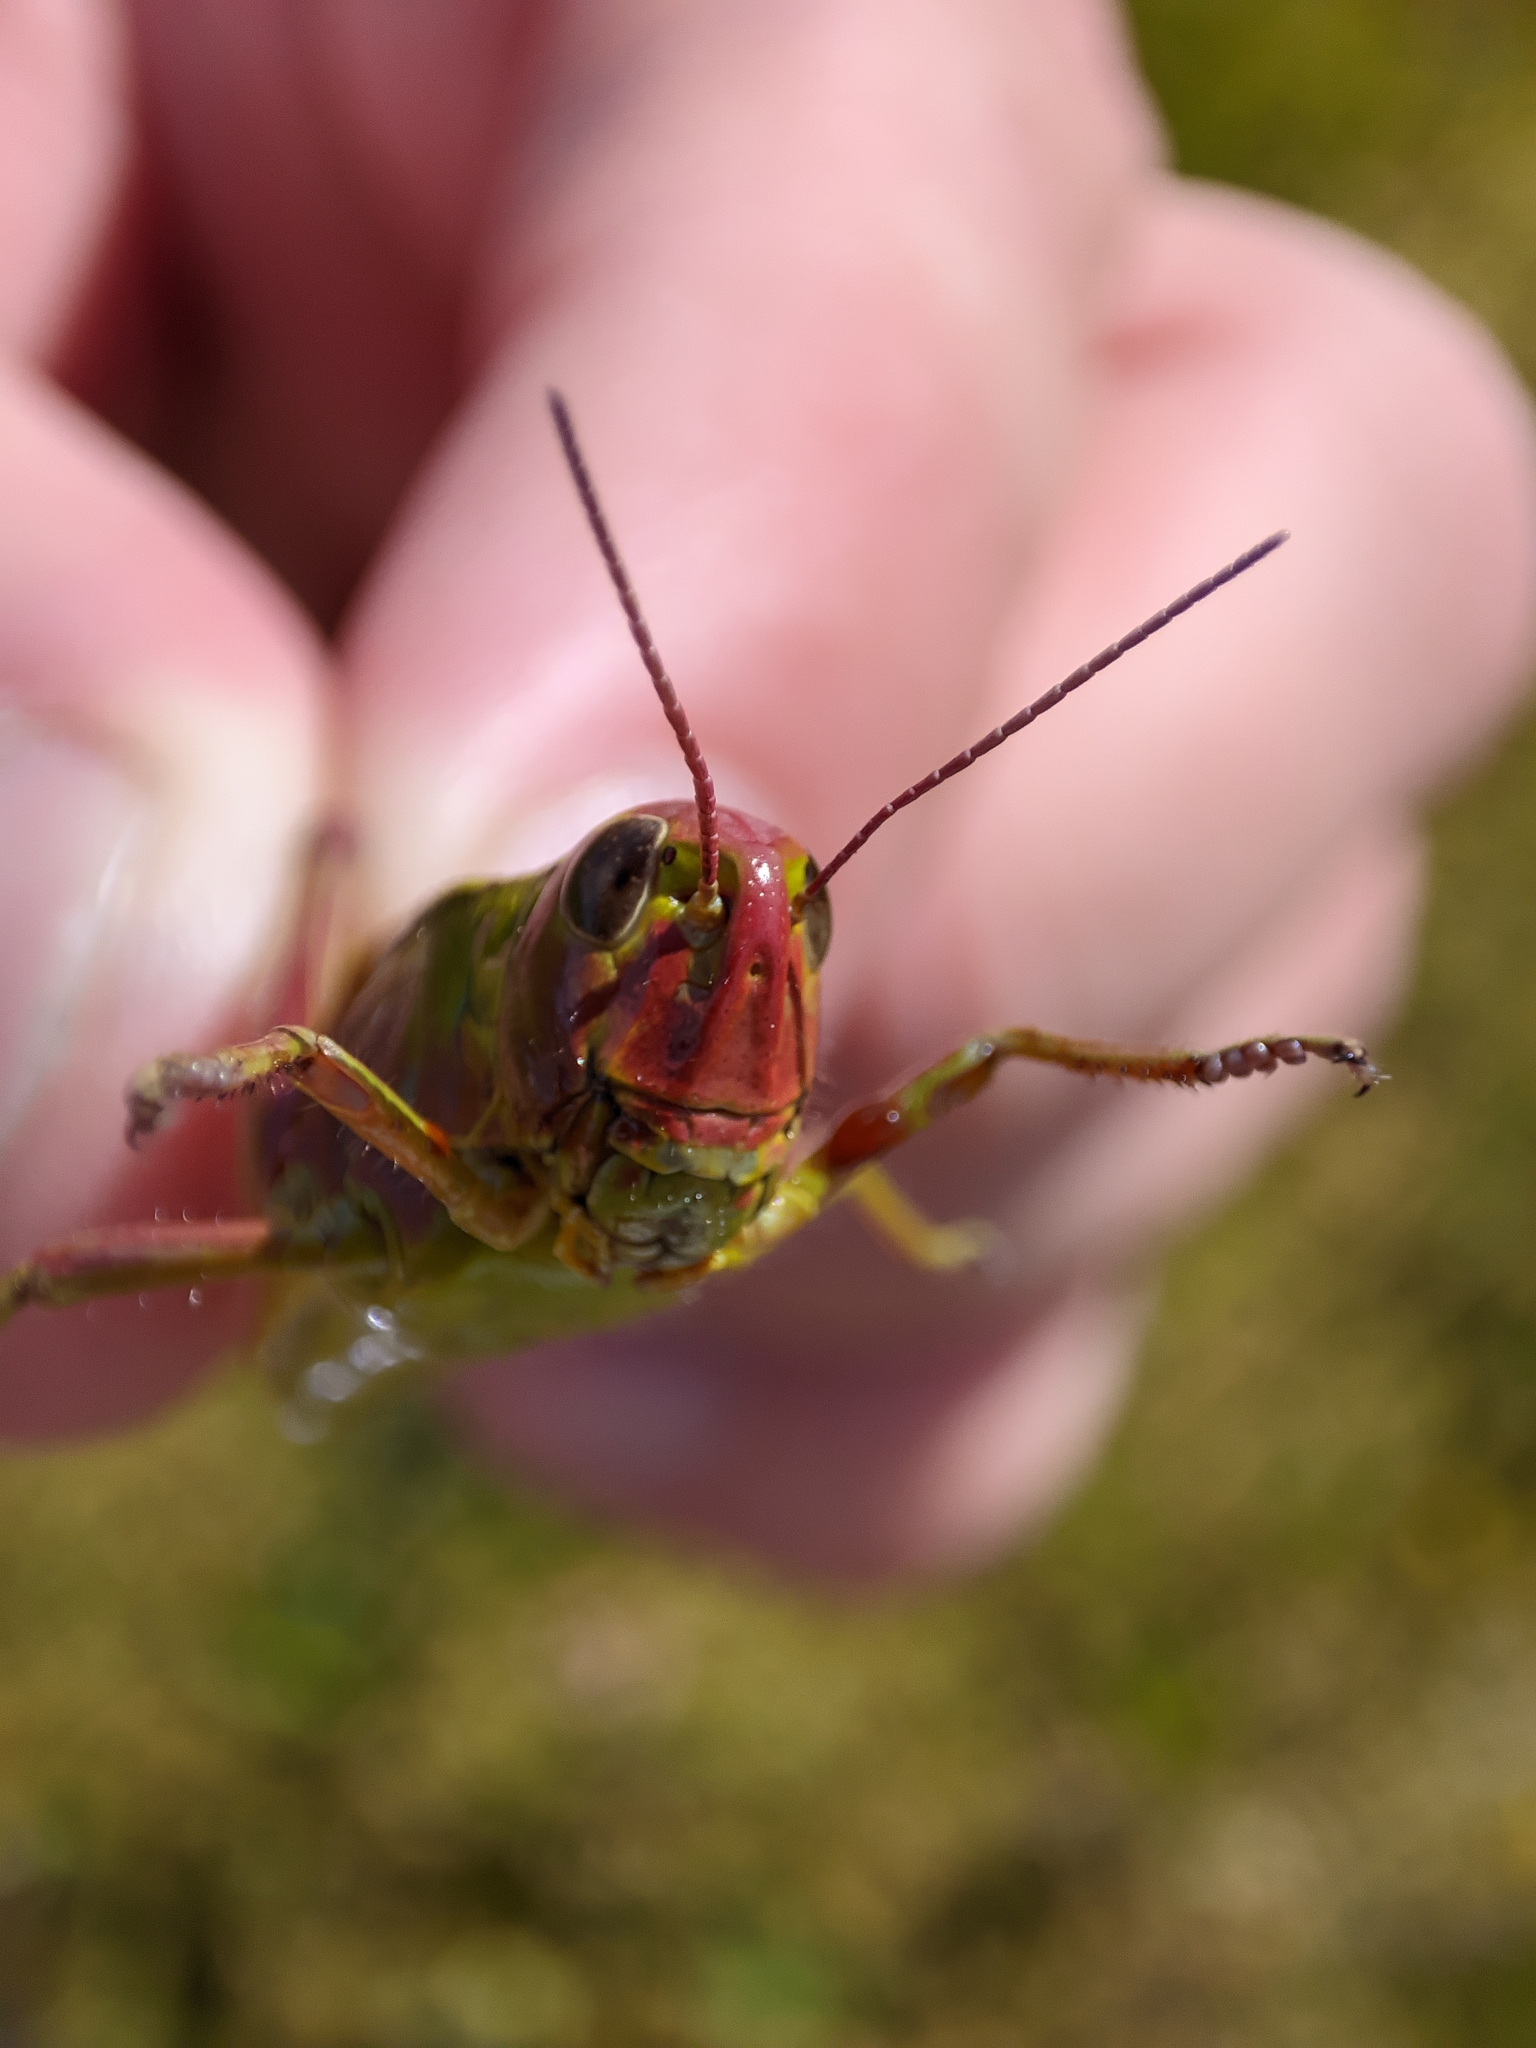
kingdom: Animalia
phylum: Arthropoda
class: Insecta
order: Orthoptera
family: Acrididae
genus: Stethophyma
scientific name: Stethophyma grossum
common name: Large marsh grasshopper
